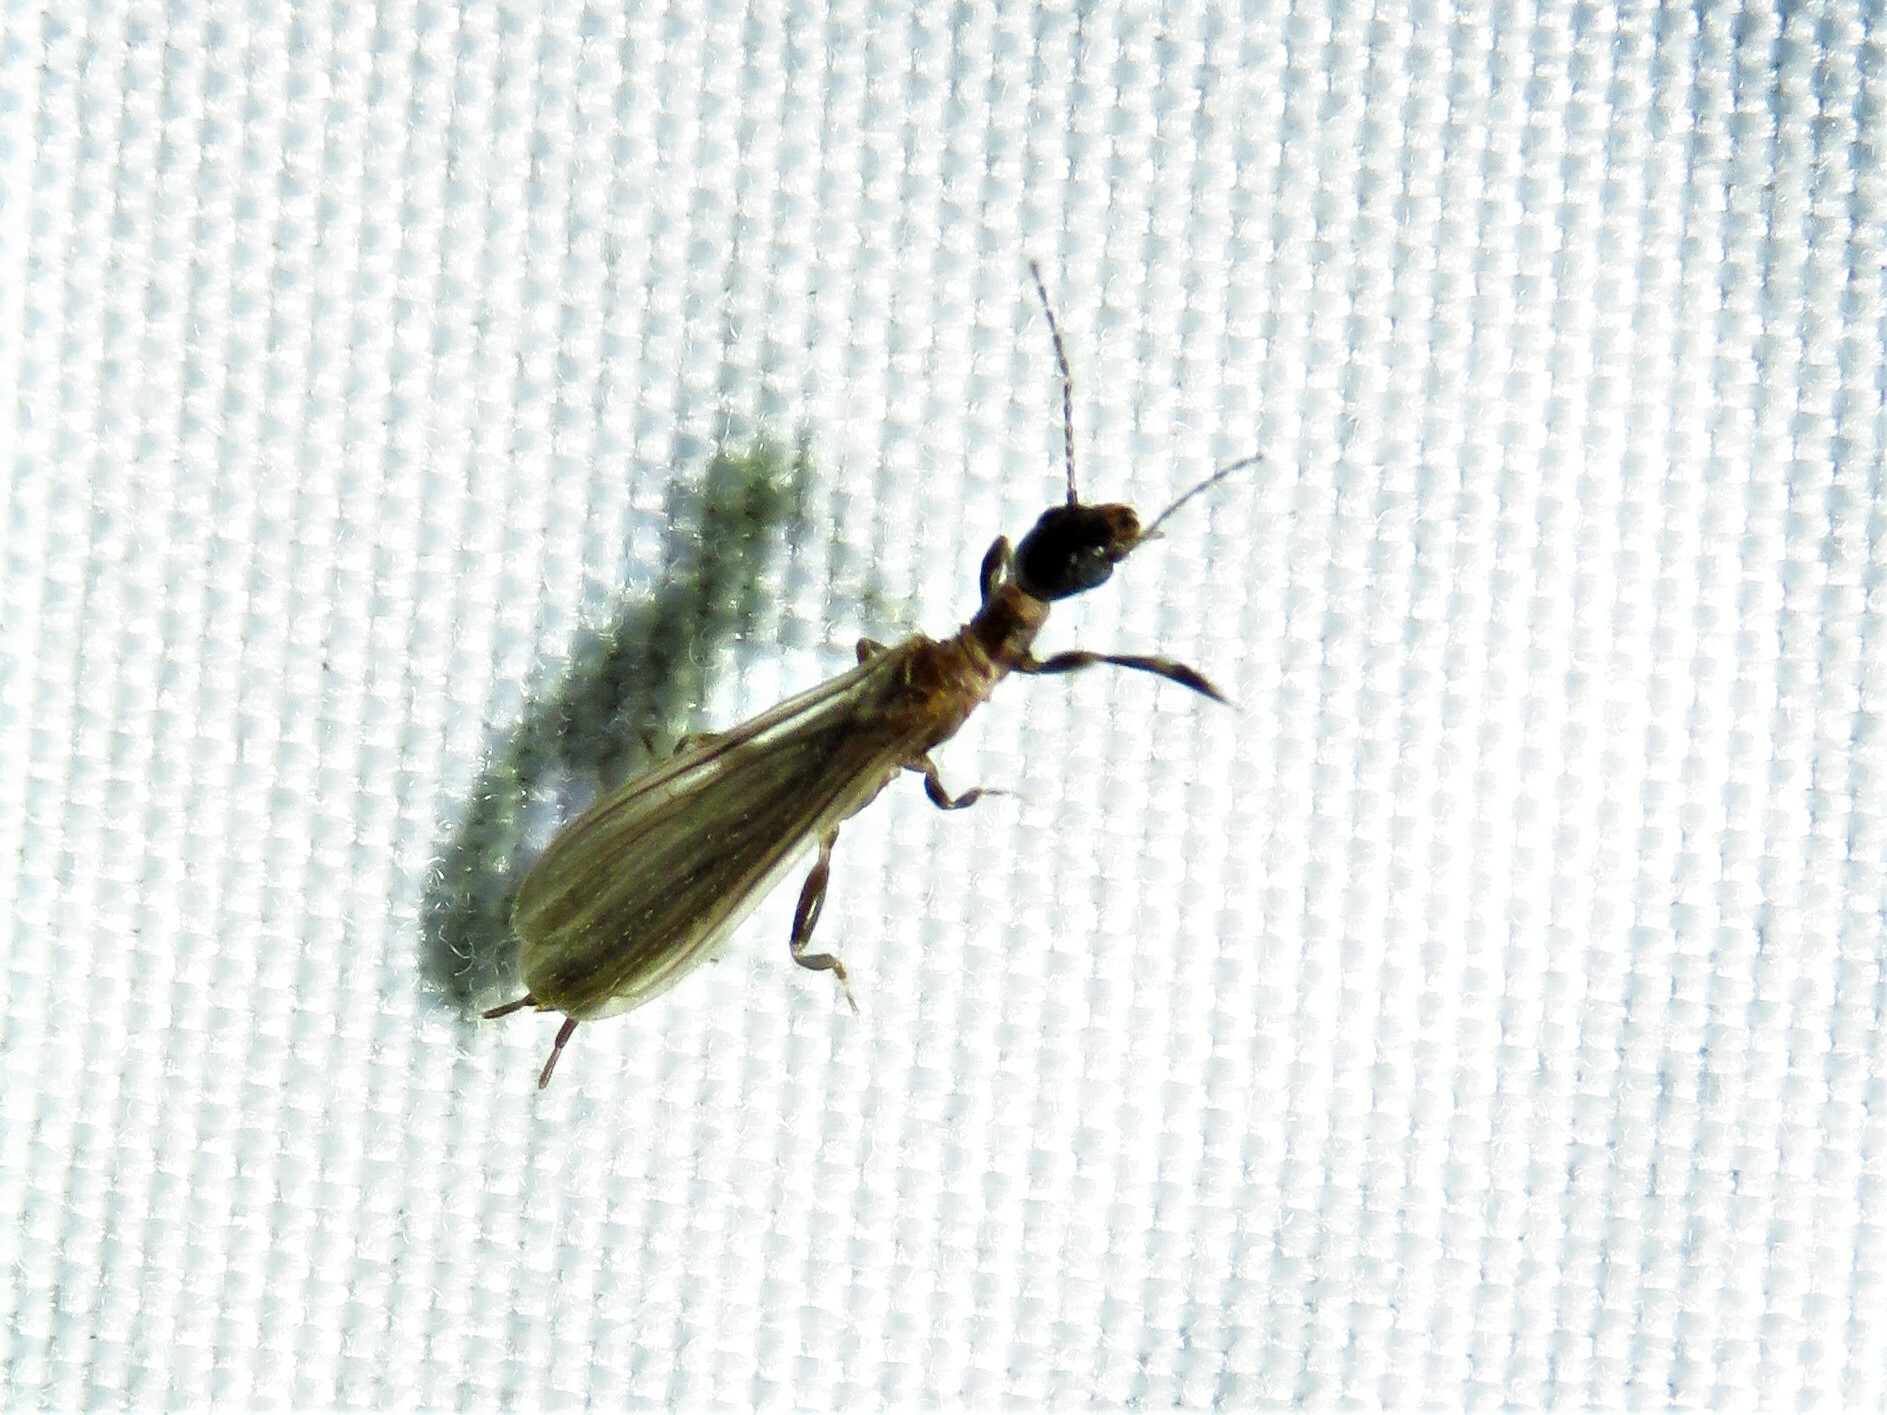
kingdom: Animalia
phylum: Arthropoda
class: Insecta
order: Embioptera
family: Oligotomidae
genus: Oligotoma
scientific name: Oligotoma nigra
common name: Black webspinner
